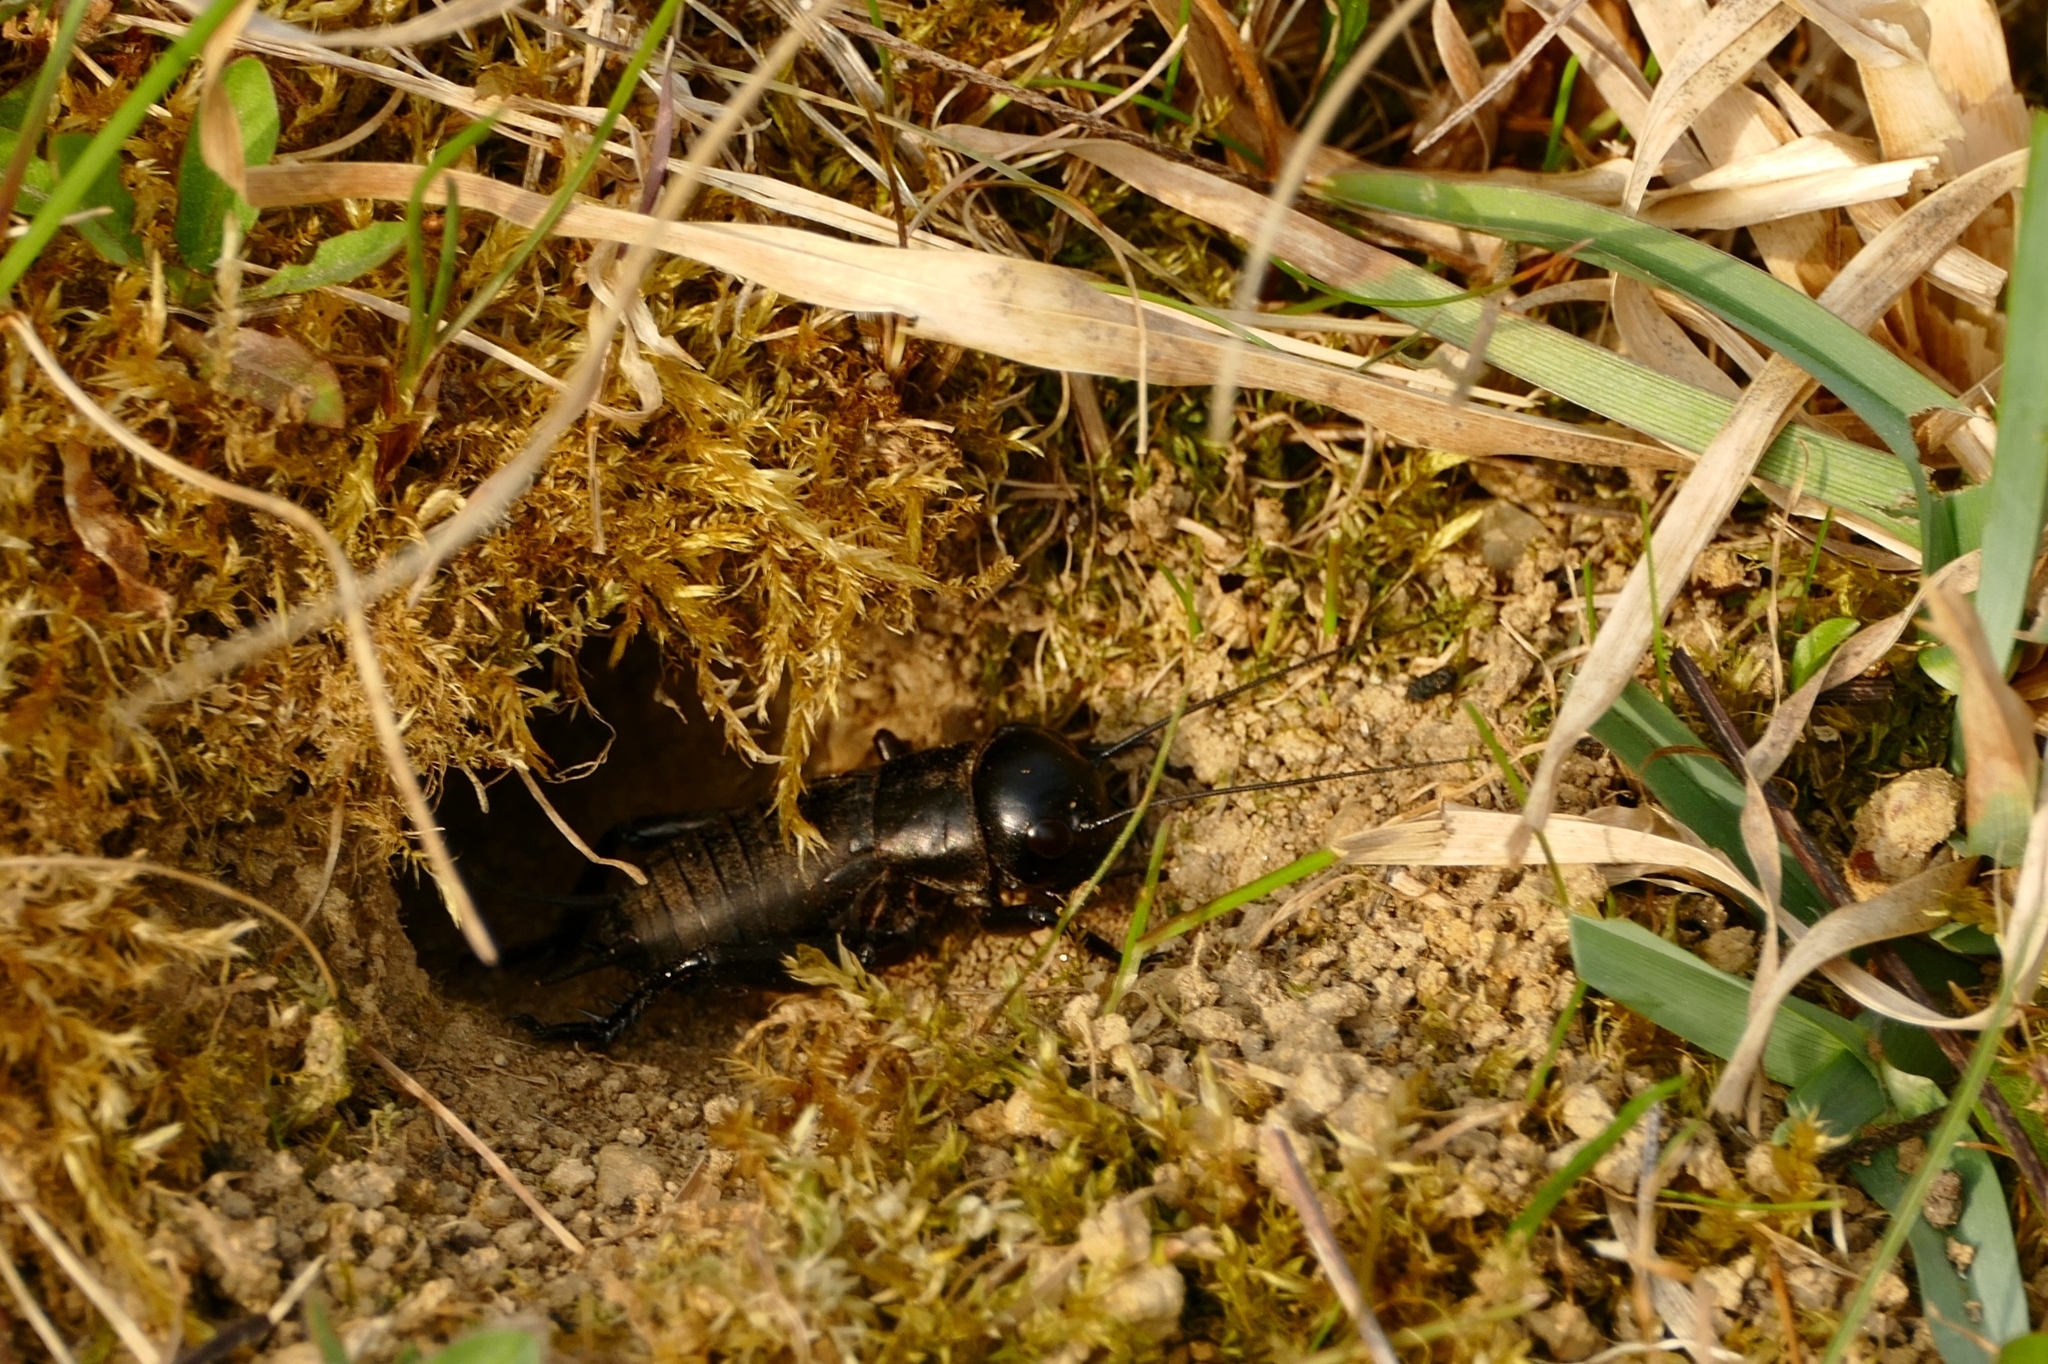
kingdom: Animalia
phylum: Arthropoda
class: Insecta
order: Orthoptera
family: Gryllidae
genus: Gryllus
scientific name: Gryllus campestris
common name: Field cricket
